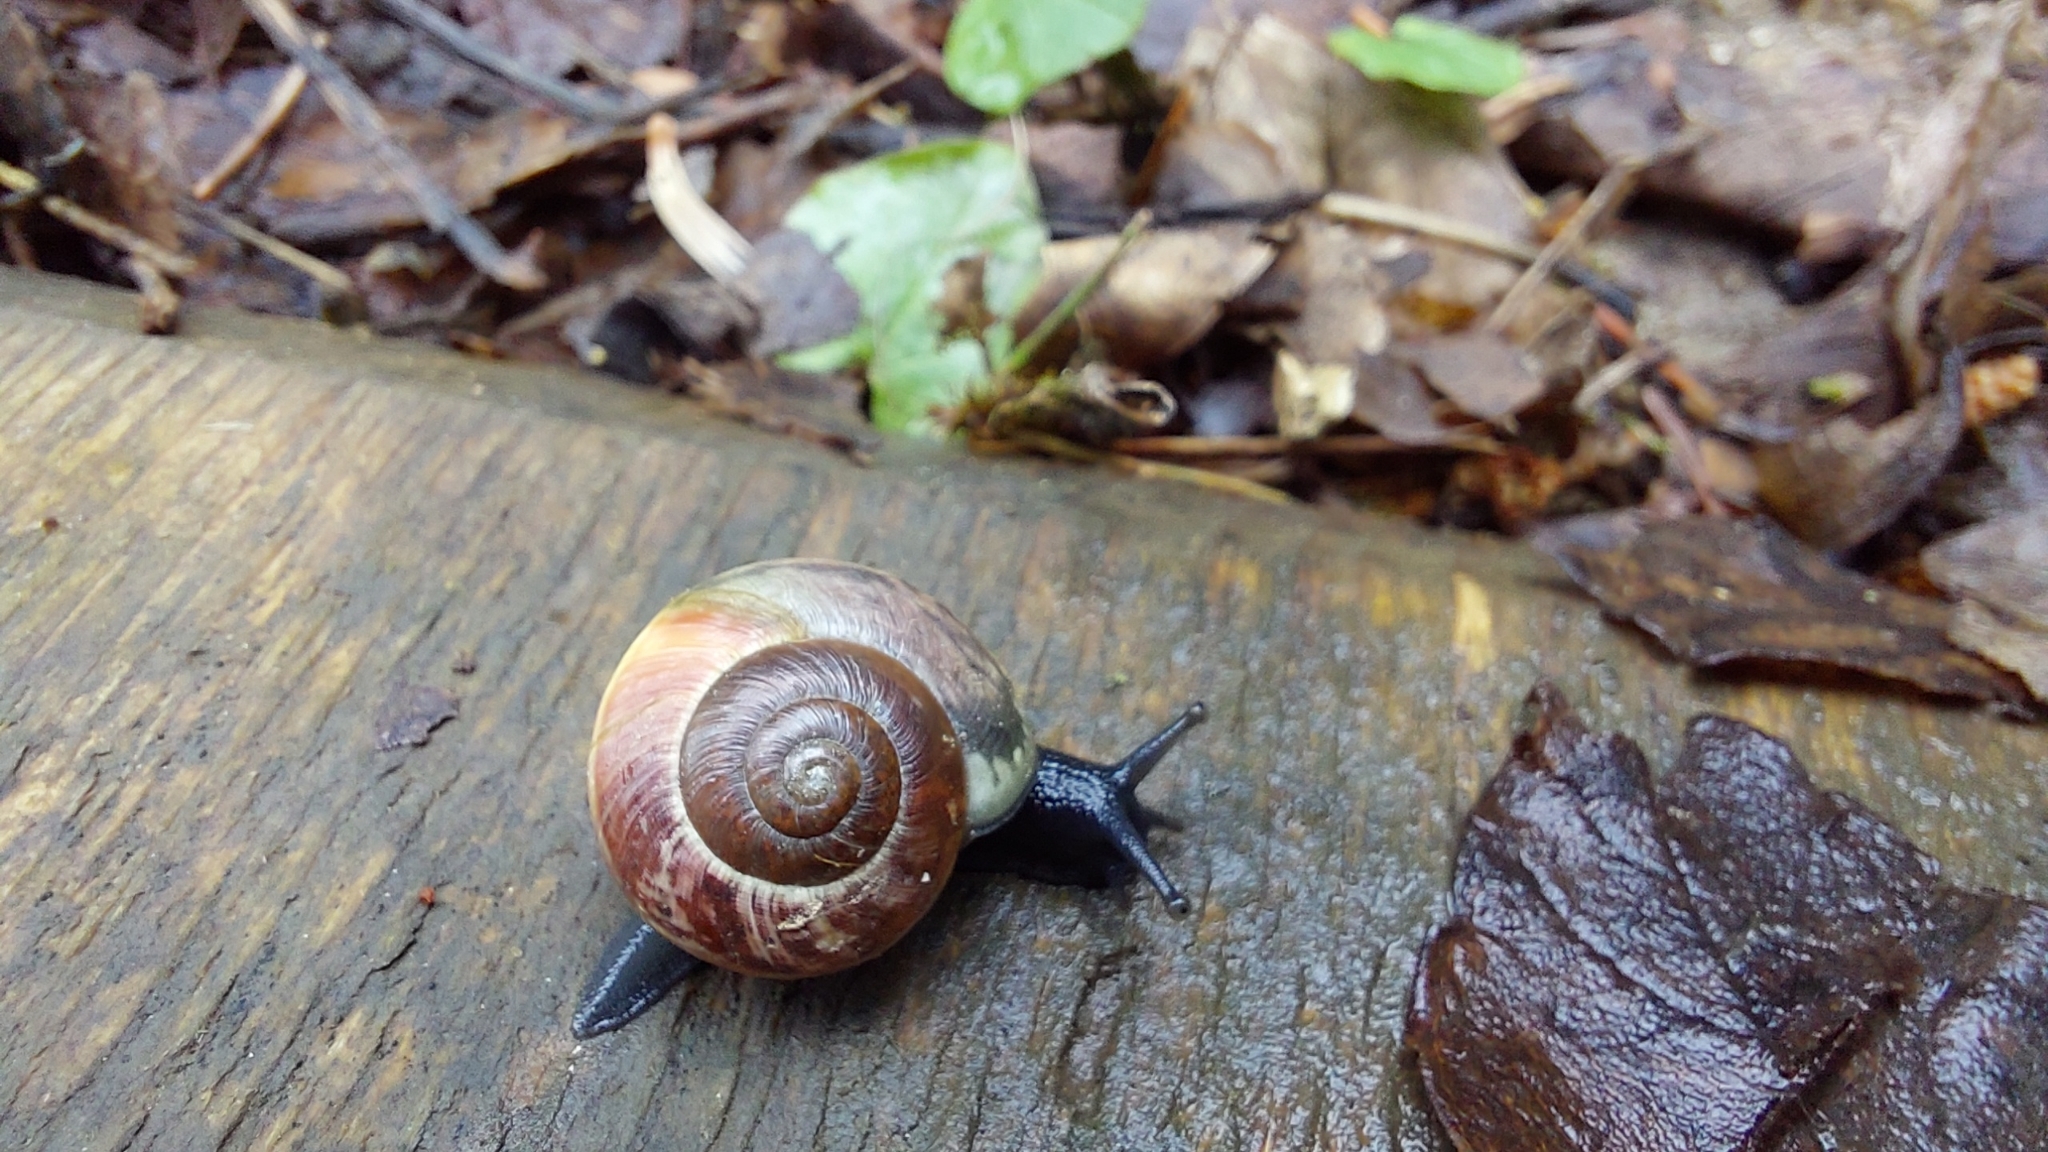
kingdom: Animalia
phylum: Mollusca
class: Gastropoda
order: Stylommatophora
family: Helicidae
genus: Arianta
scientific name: Arianta arbustorum
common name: Copse snail
